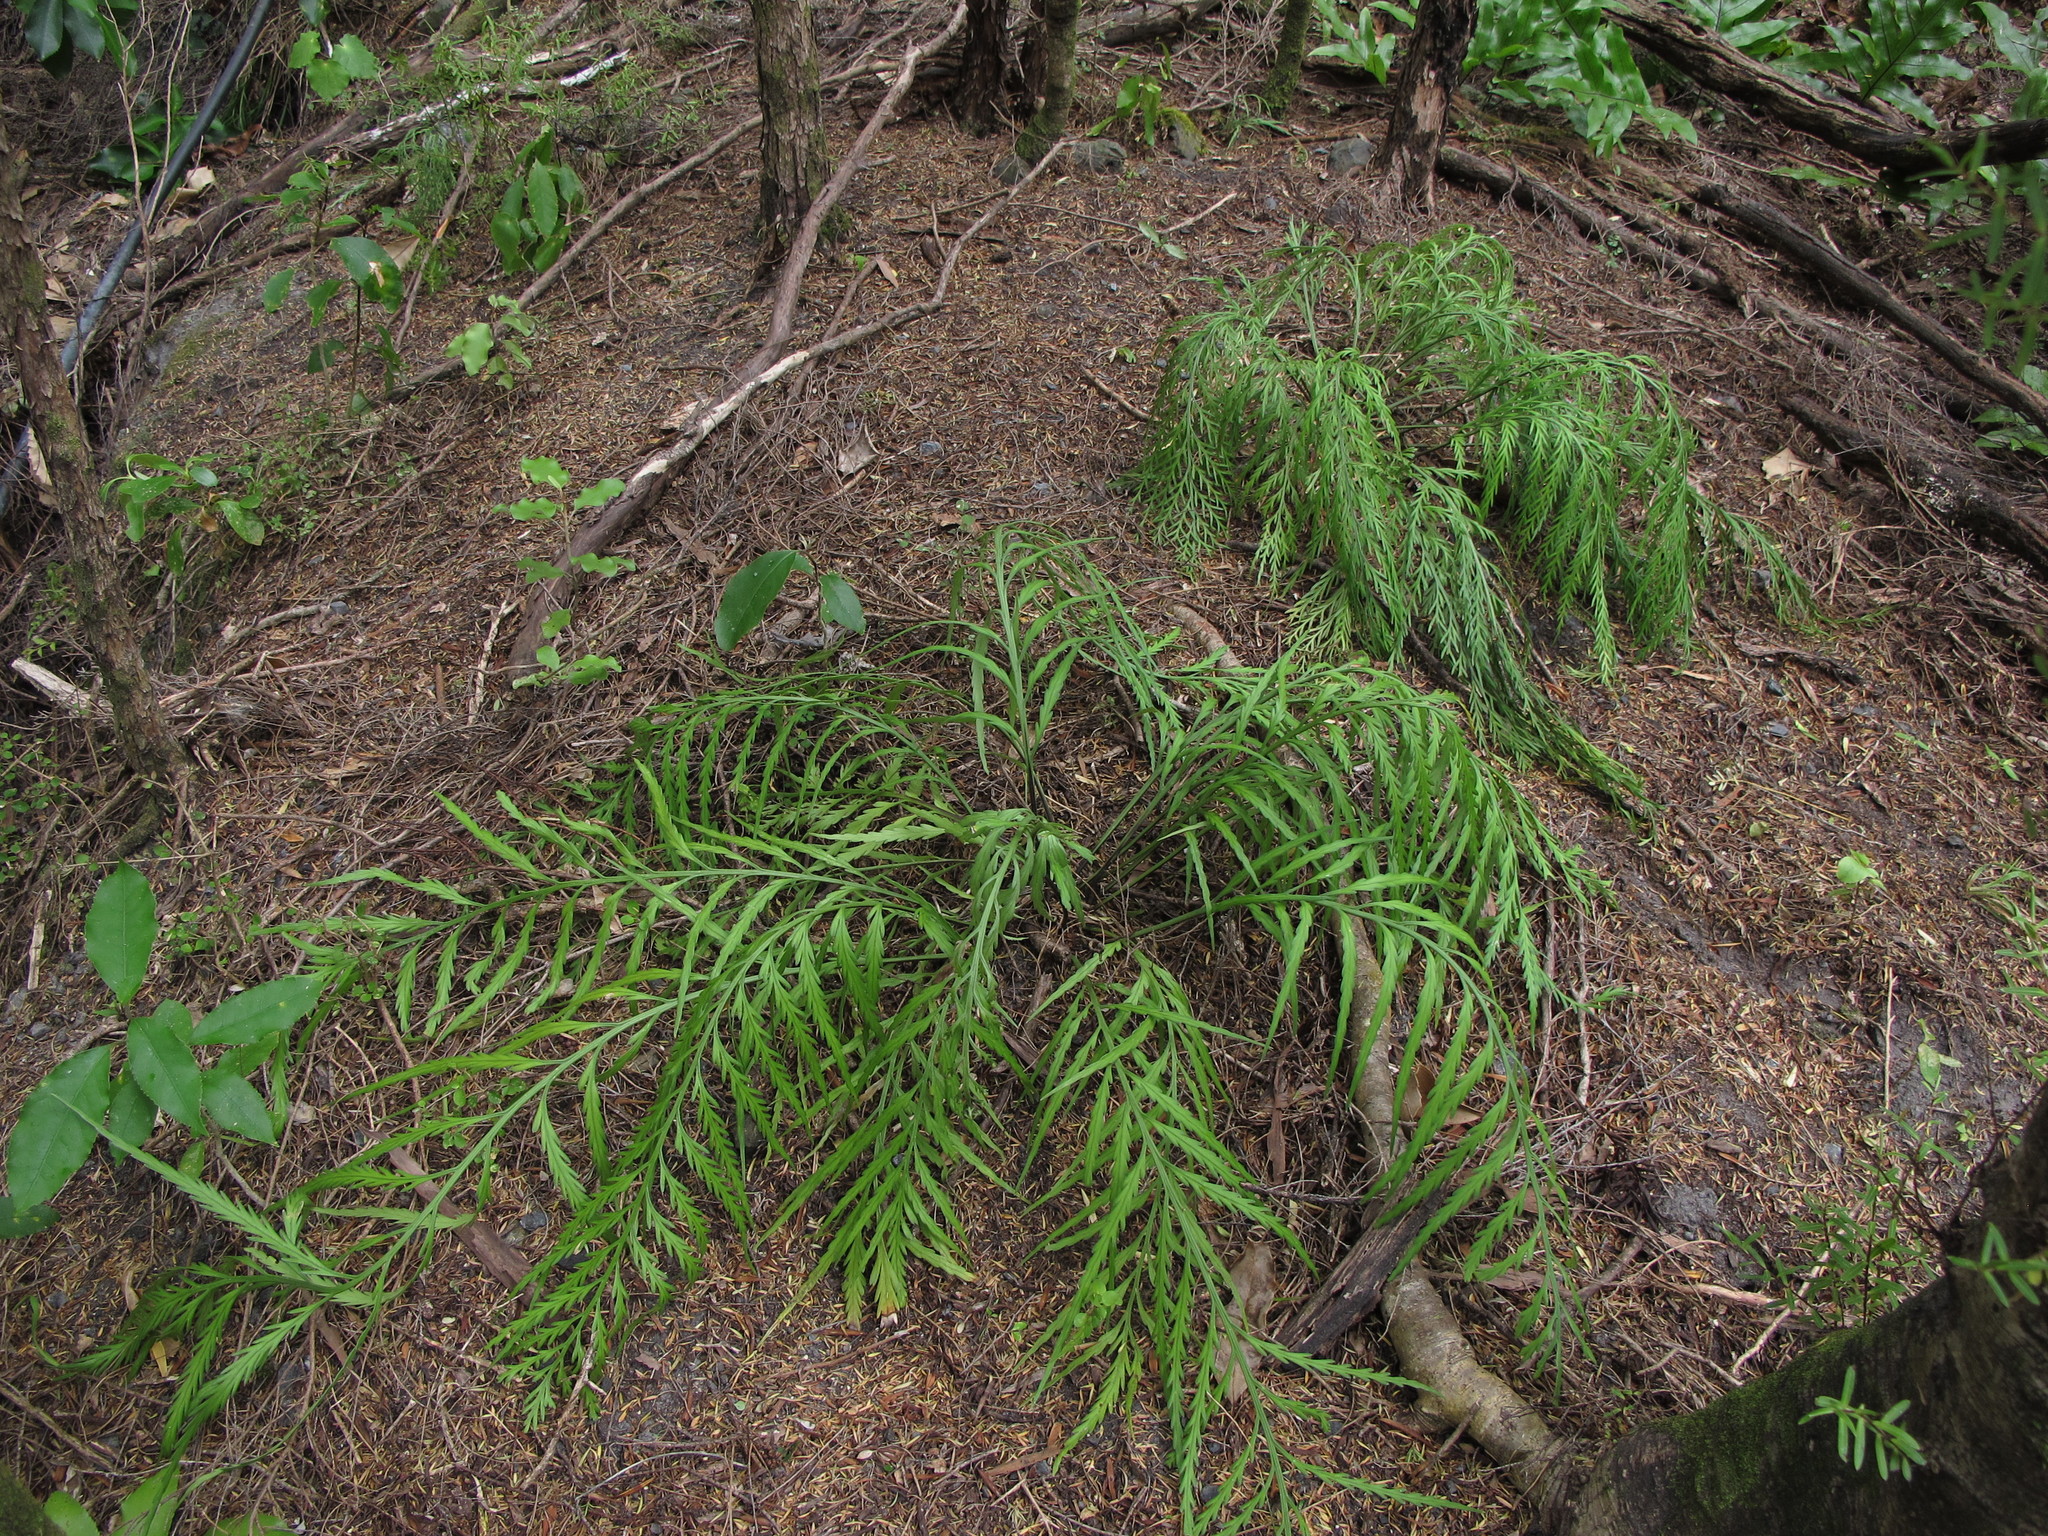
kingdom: Plantae
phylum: Tracheophyta
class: Polypodiopsida
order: Polypodiales
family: Aspleniaceae
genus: Asplenium
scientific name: Asplenium flaccidum
